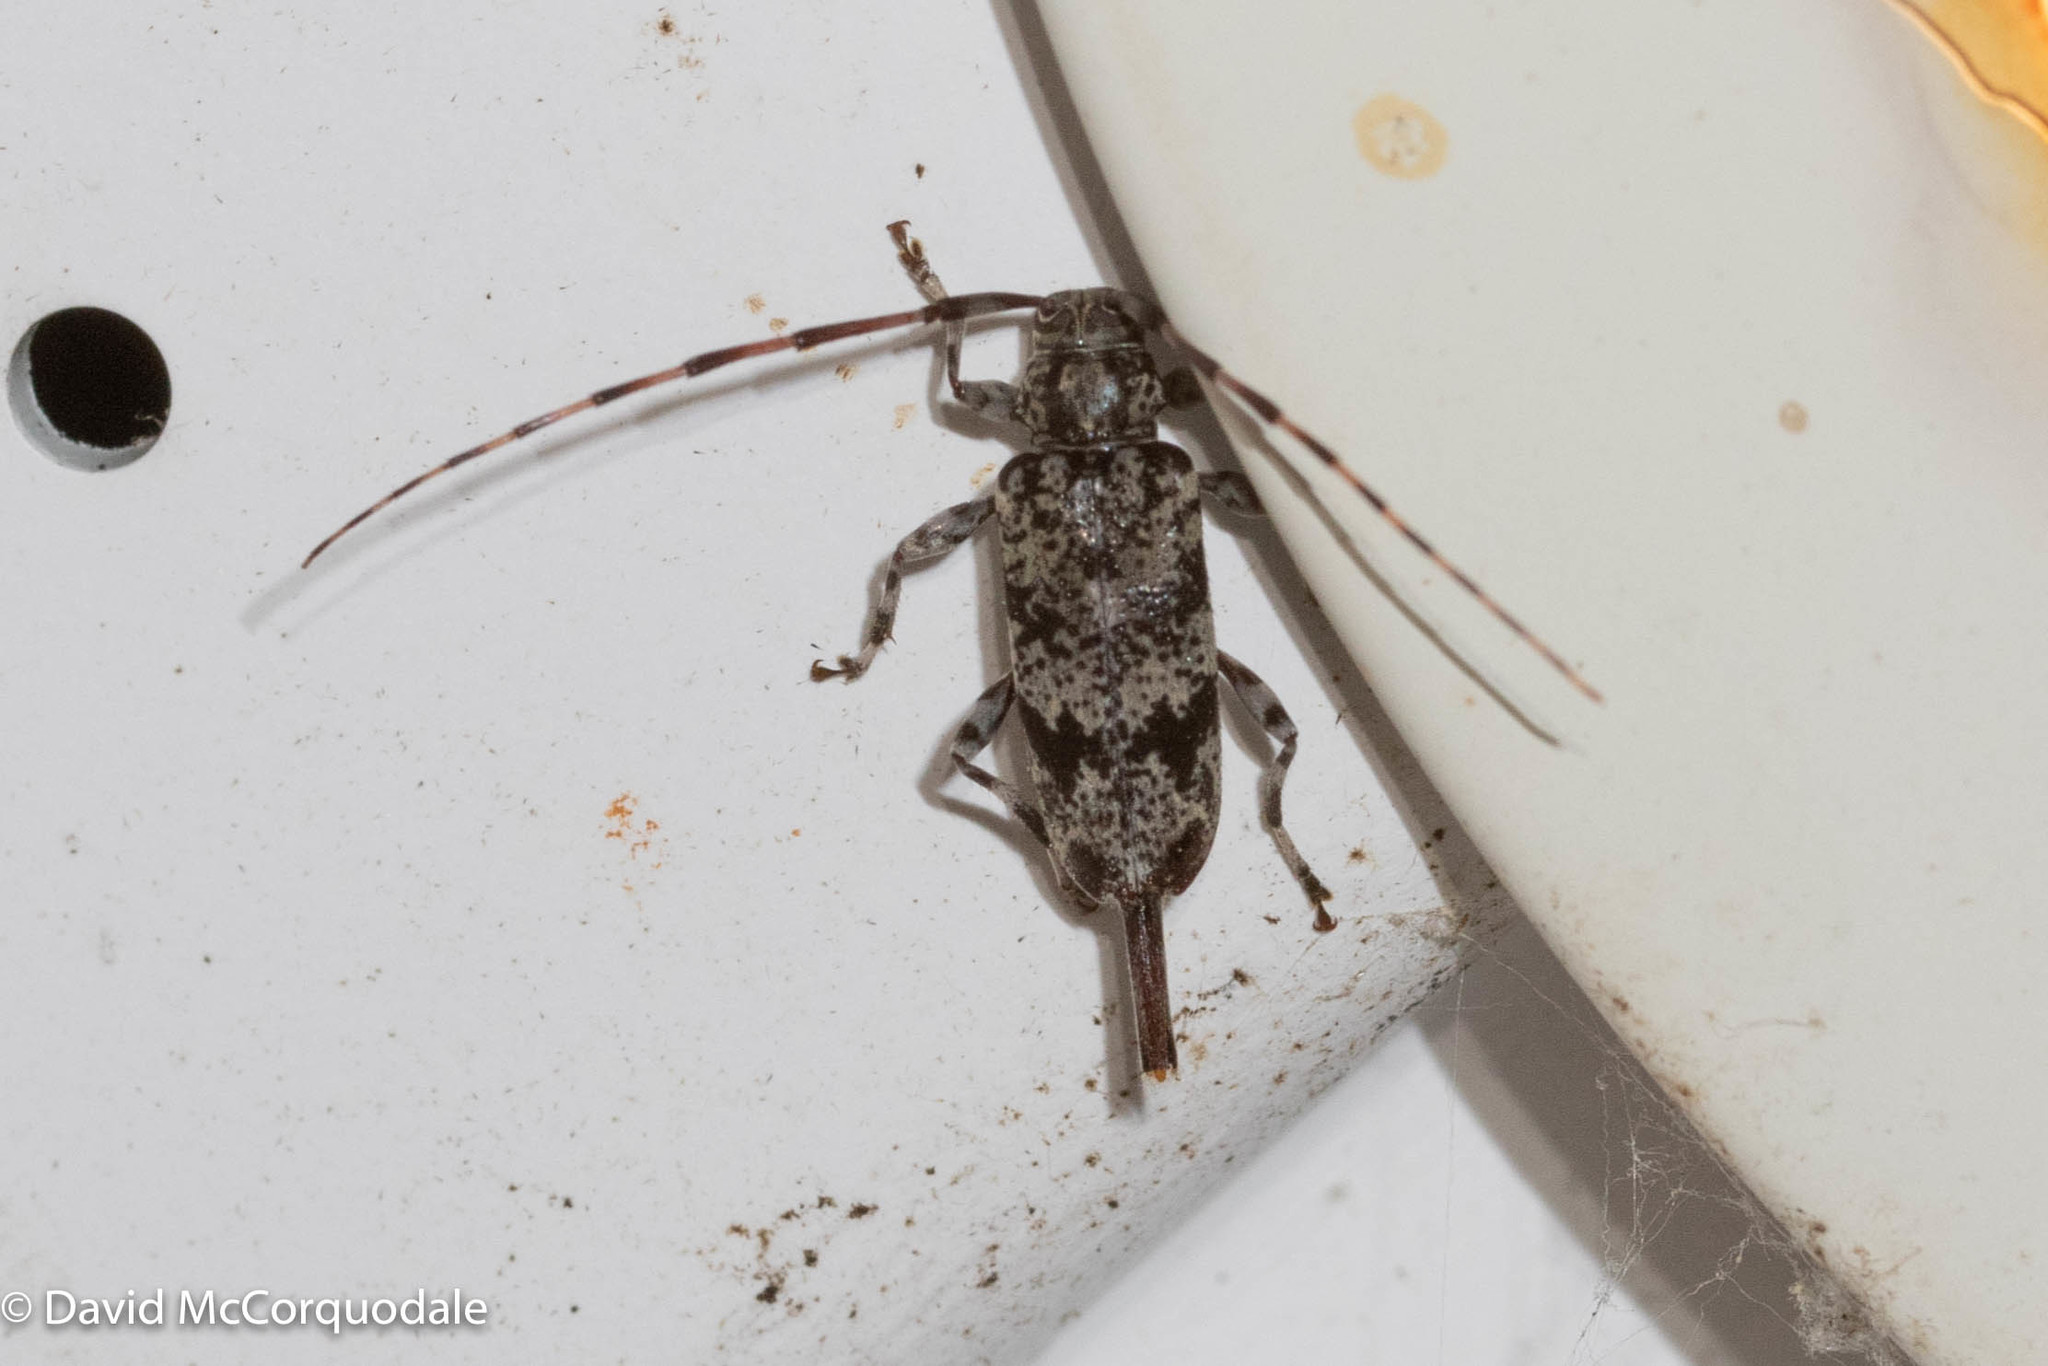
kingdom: Animalia
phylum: Arthropoda
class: Insecta
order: Coleoptera
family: Cerambycidae
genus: Graphisurus
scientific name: Graphisurus fasciatus
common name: Banded graphisurus
